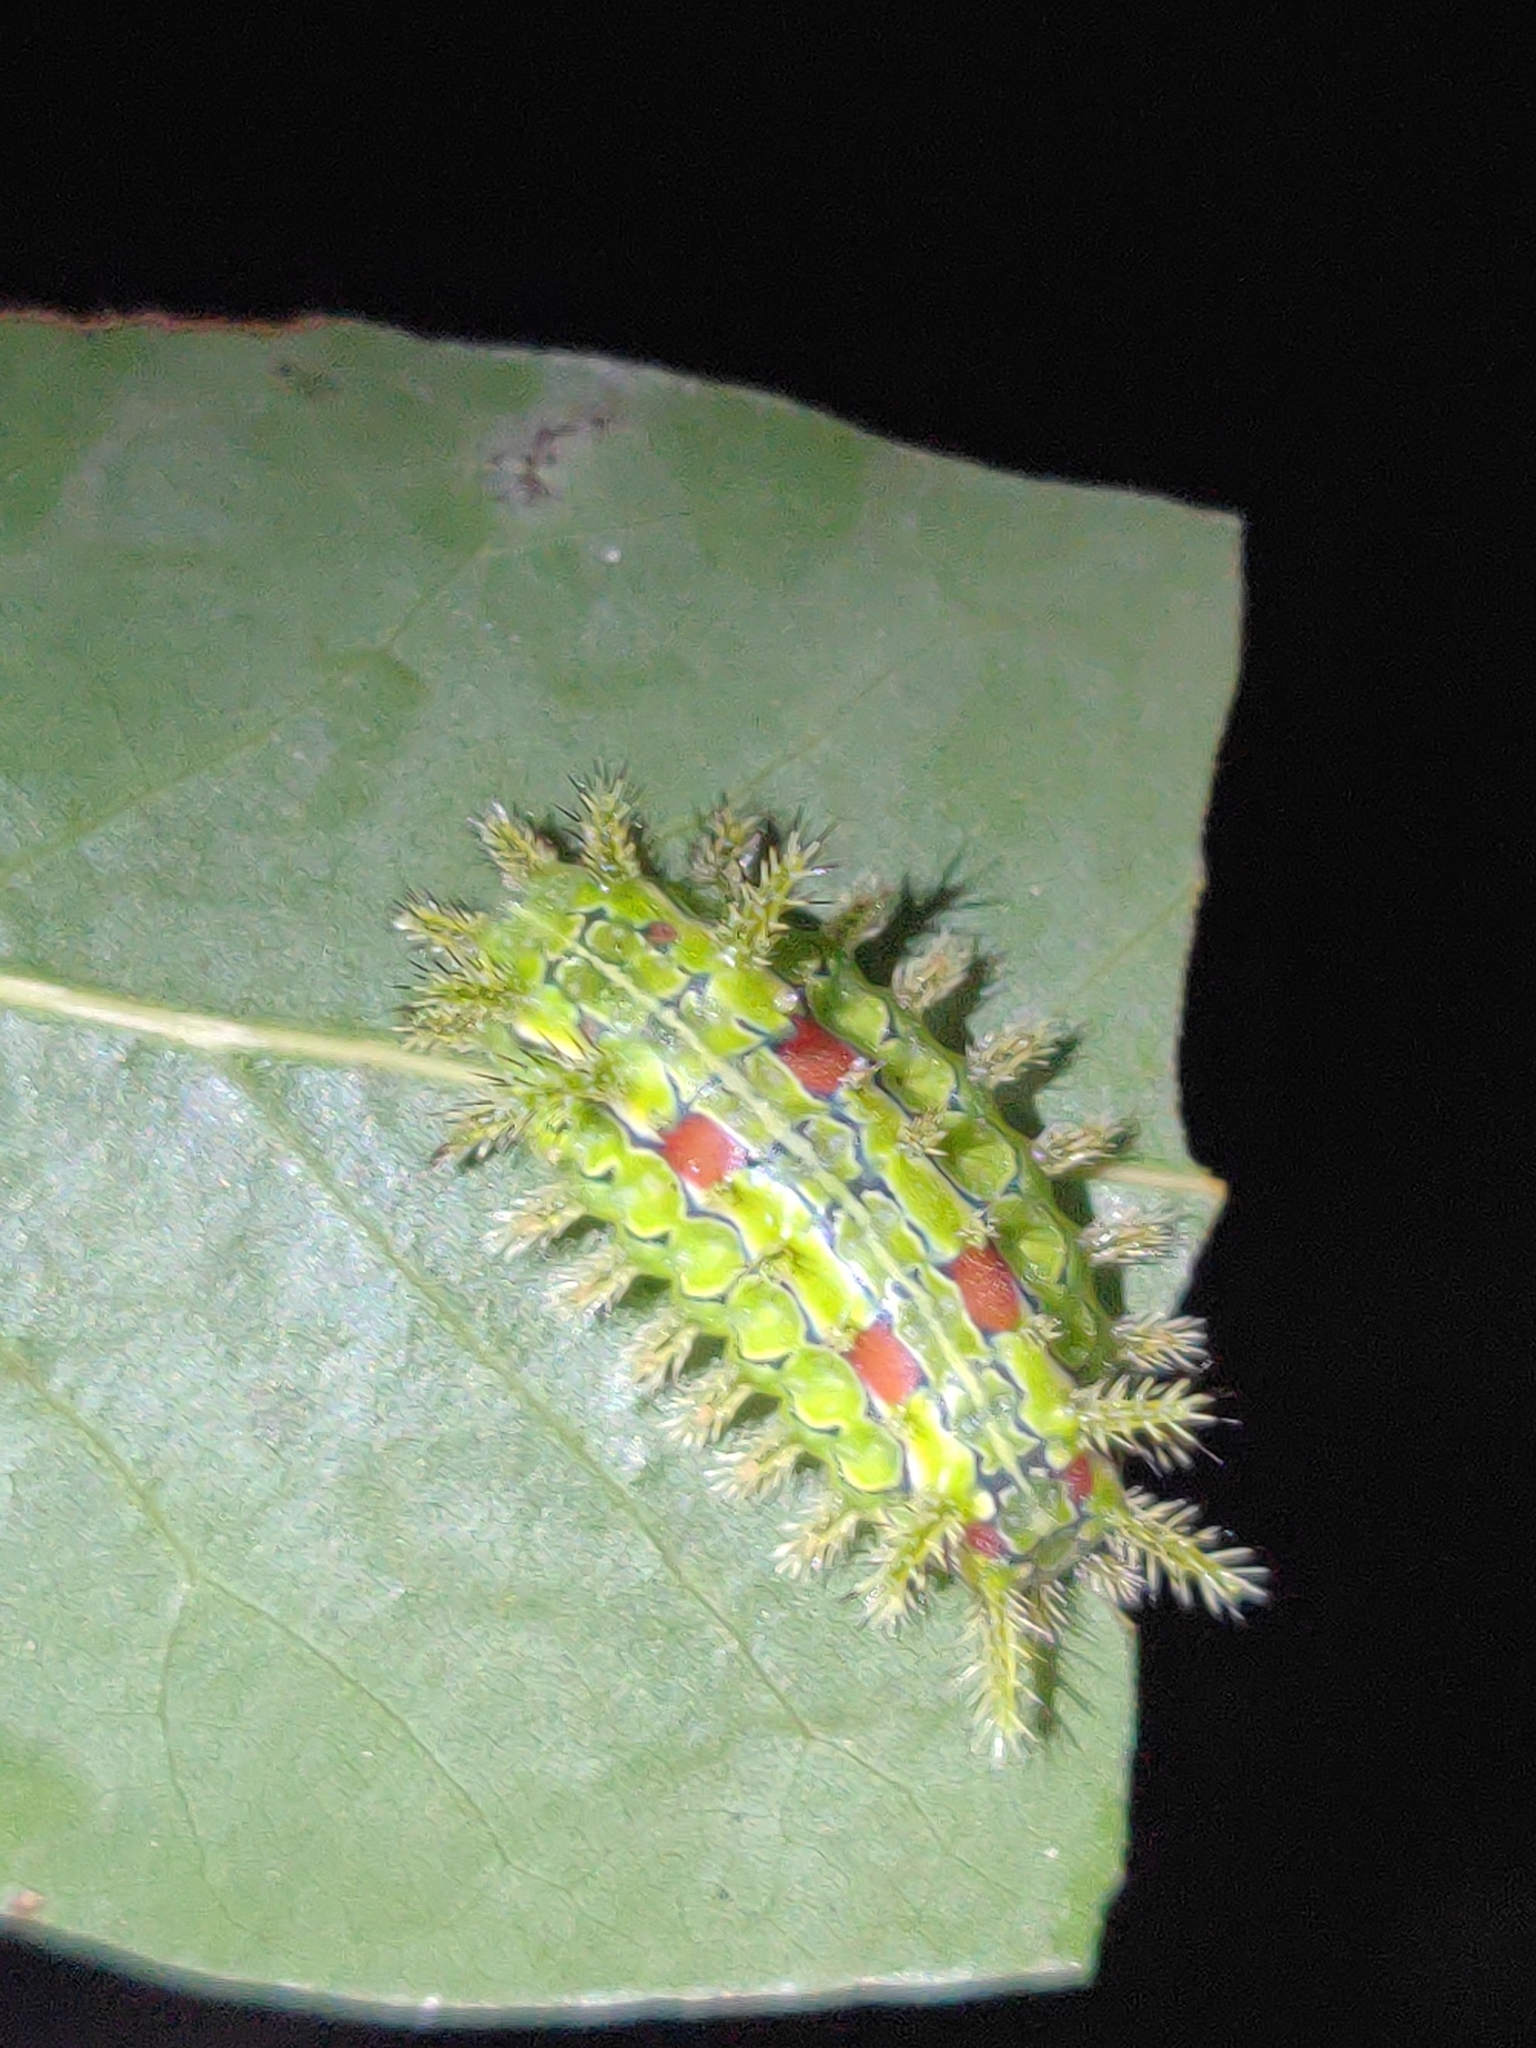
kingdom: Animalia
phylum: Arthropoda
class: Insecta
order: Lepidoptera
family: Limacodidae
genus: Euclea
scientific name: Euclea delphinii
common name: Spiny oak-slug moth
